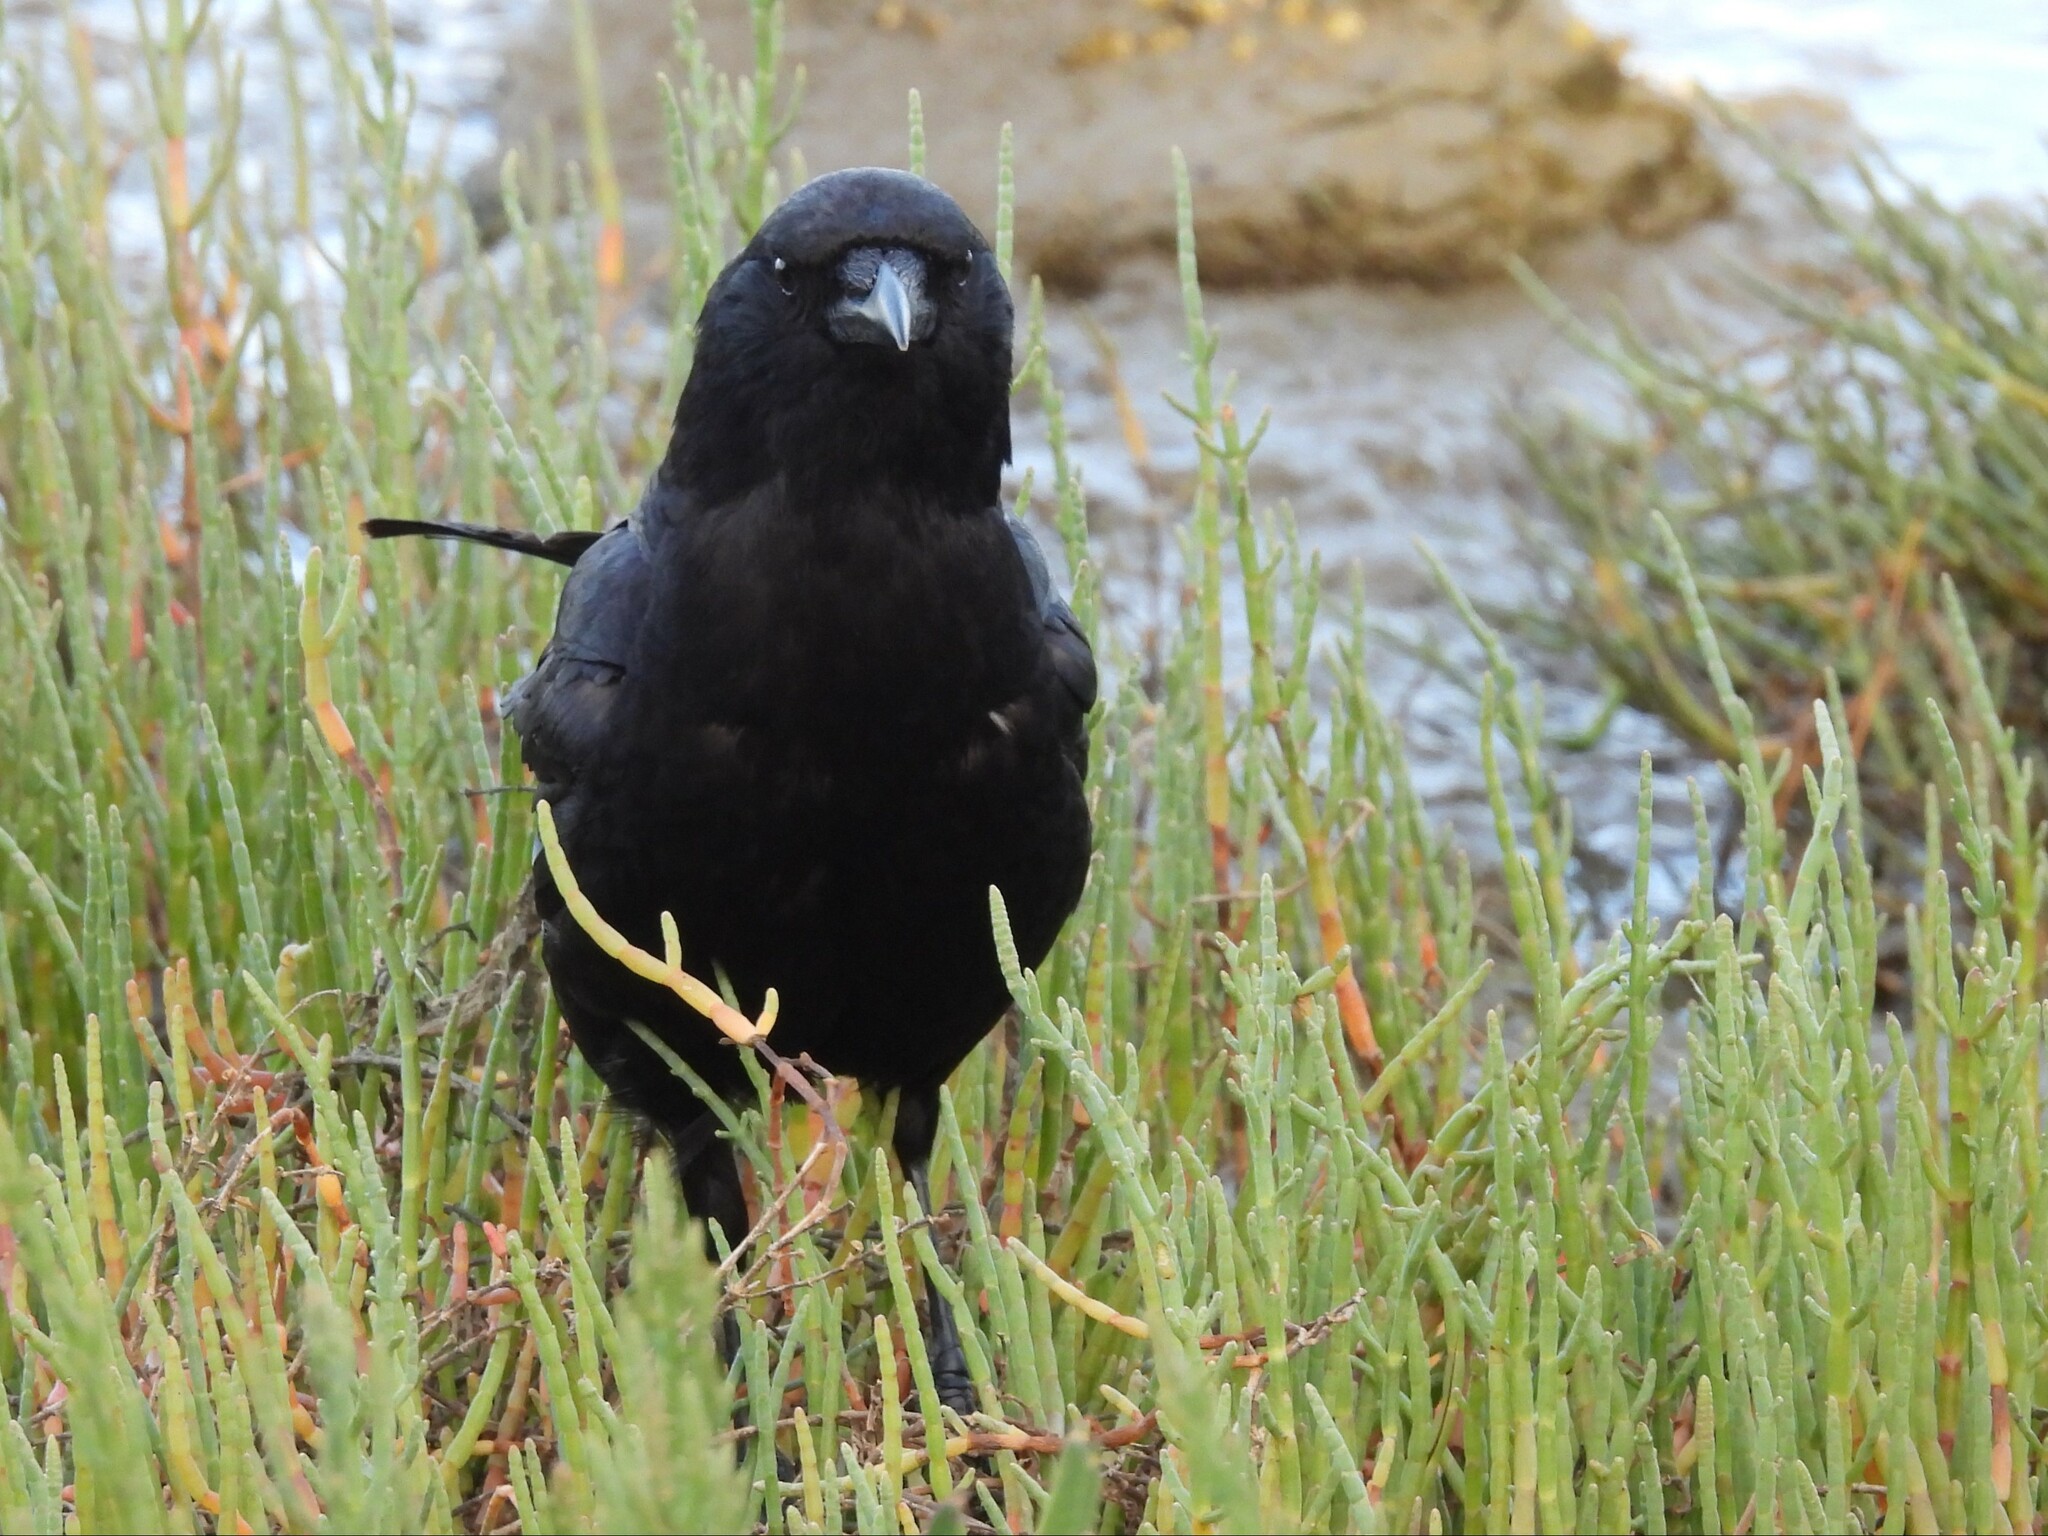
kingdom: Animalia
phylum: Chordata
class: Aves
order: Passeriformes
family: Corvidae
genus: Corvus
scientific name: Corvus brachyrhynchos
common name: American crow
